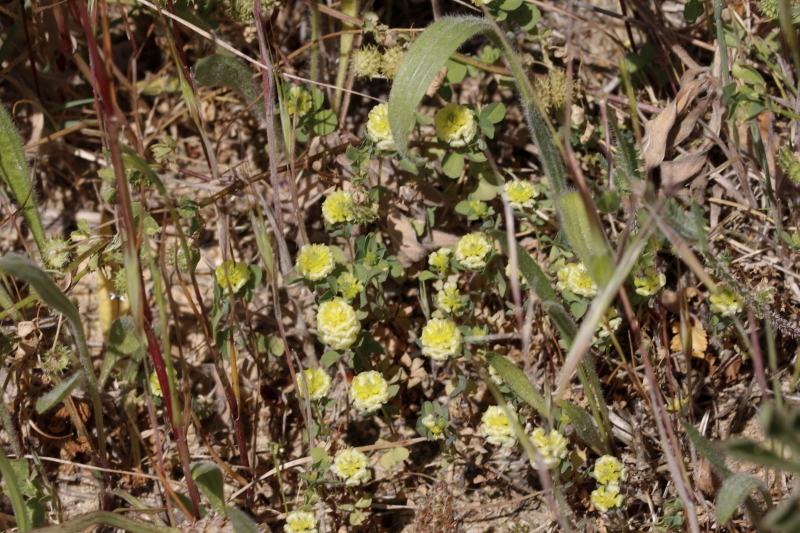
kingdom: Plantae
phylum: Tracheophyta
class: Magnoliopsida
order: Fabales
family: Fabaceae
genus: Trifolium
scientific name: Trifolium campestre
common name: Field clover
